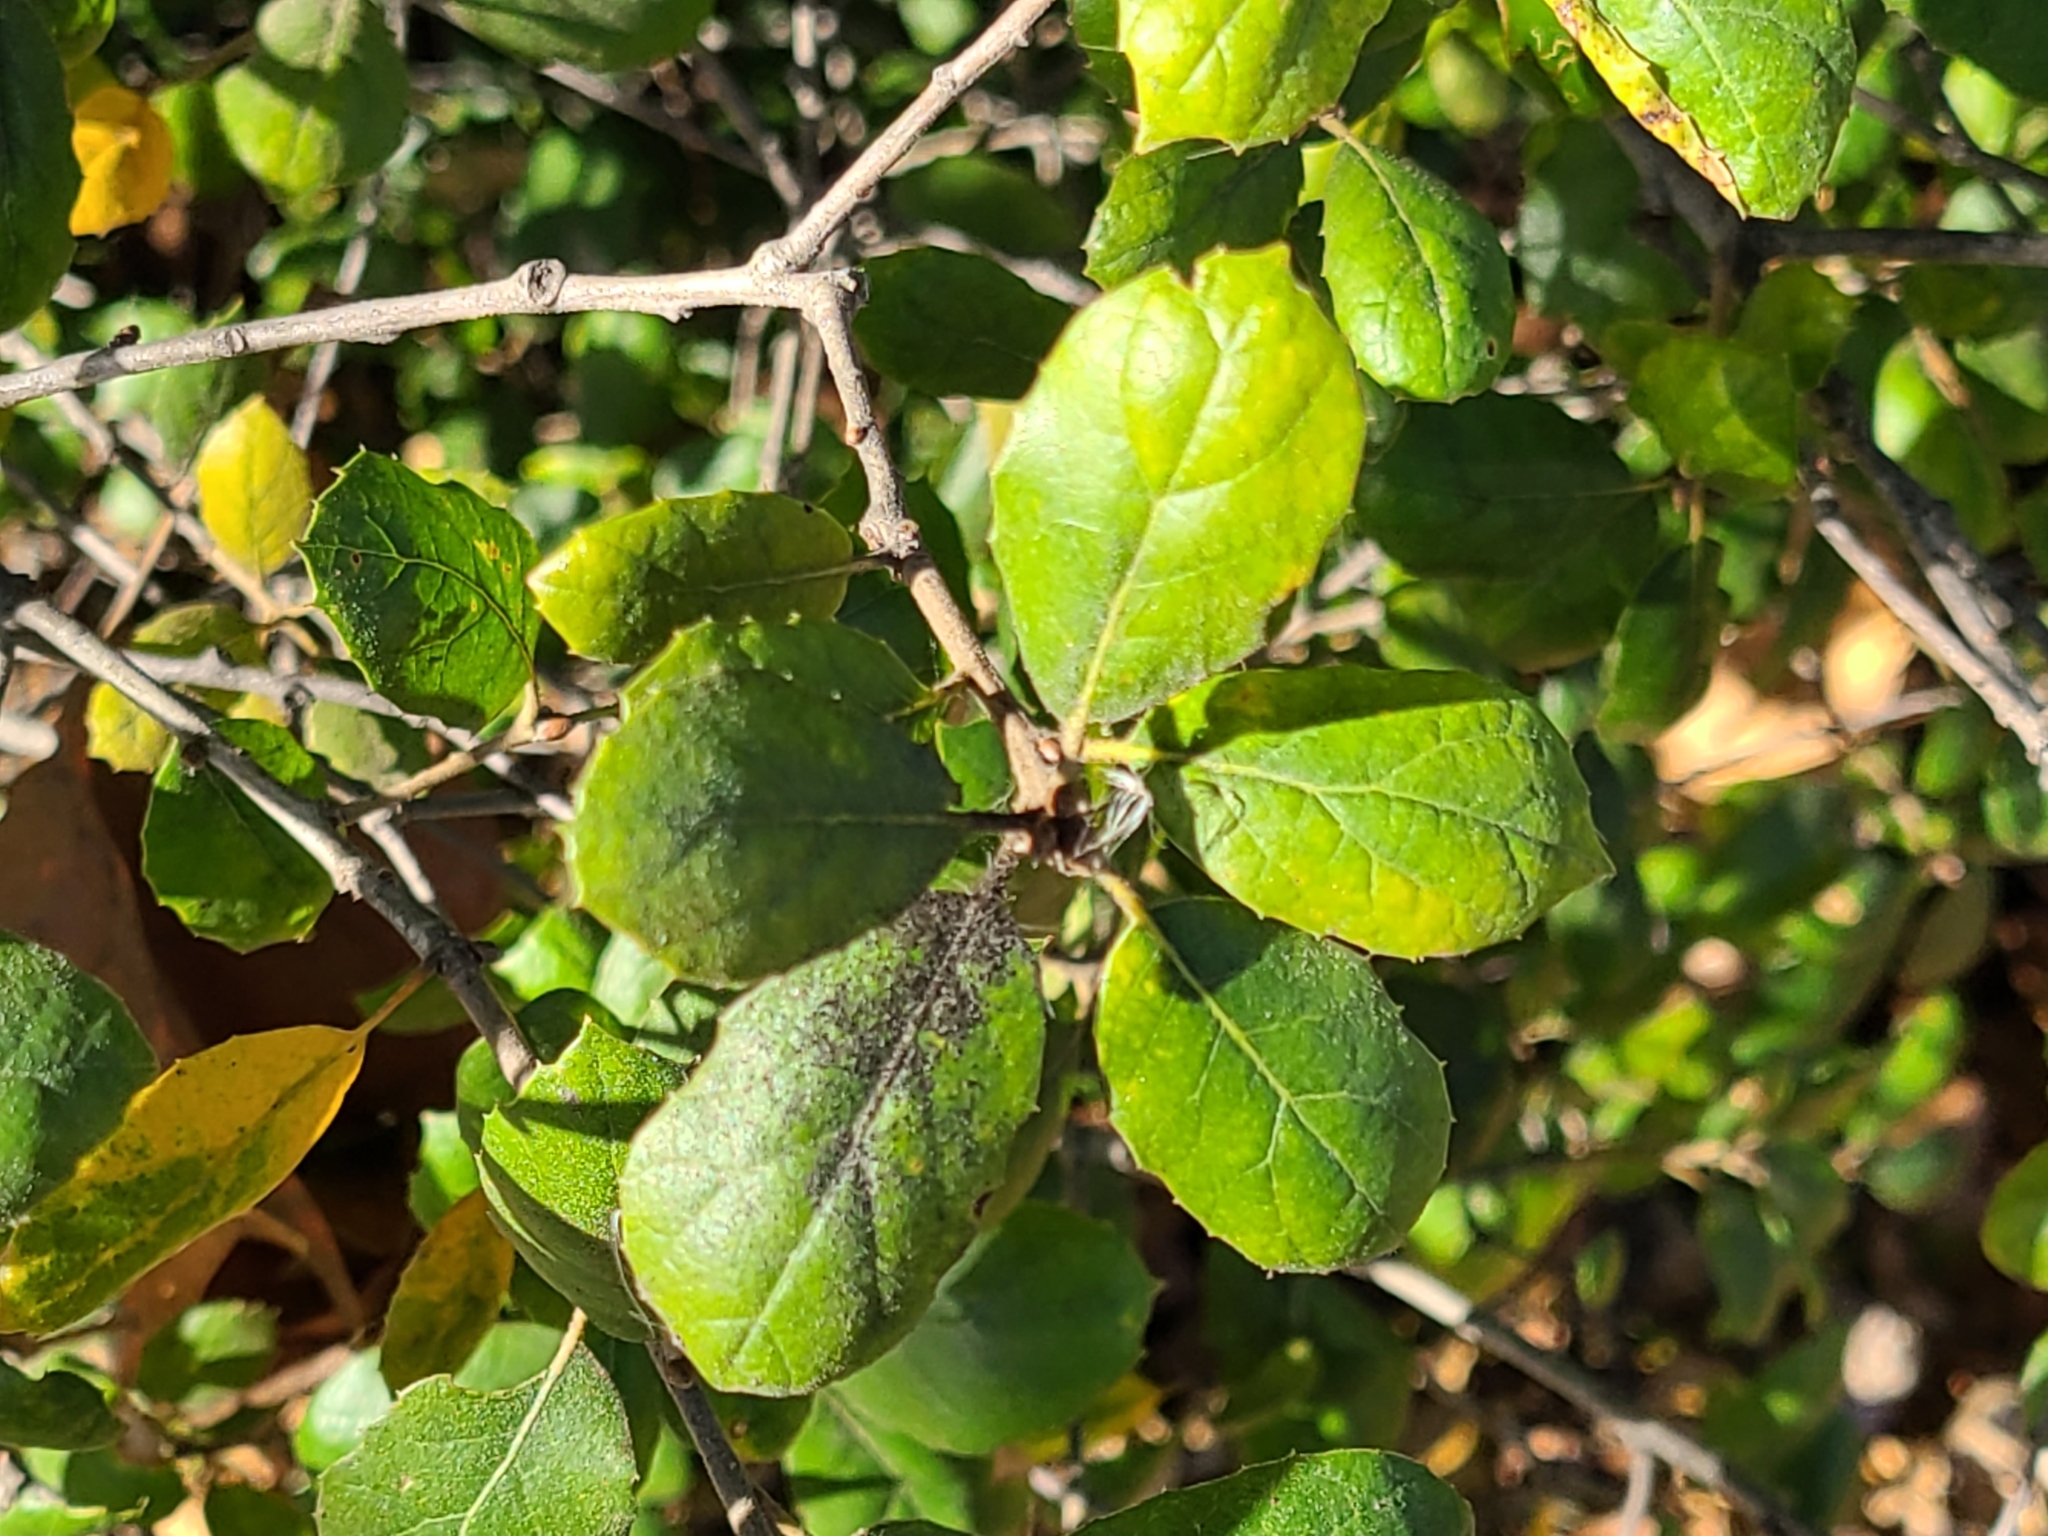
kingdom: Plantae
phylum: Tracheophyta
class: Magnoliopsida
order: Fagales
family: Fagaceae
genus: Quercus
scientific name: Quercus agrifolia
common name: California live oak
